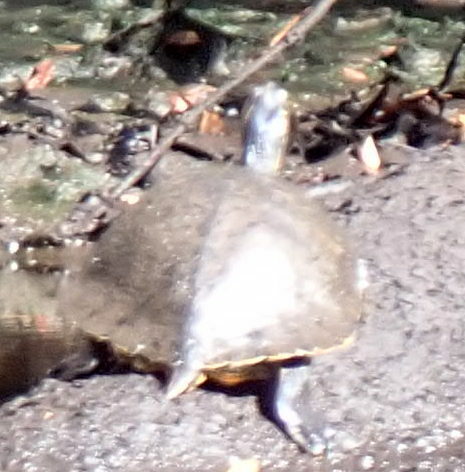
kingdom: Animalia
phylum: Chordata
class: Testudines
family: Emydidae
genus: Pseudemys
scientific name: Pseudemys concinna
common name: Eastern river cooter
